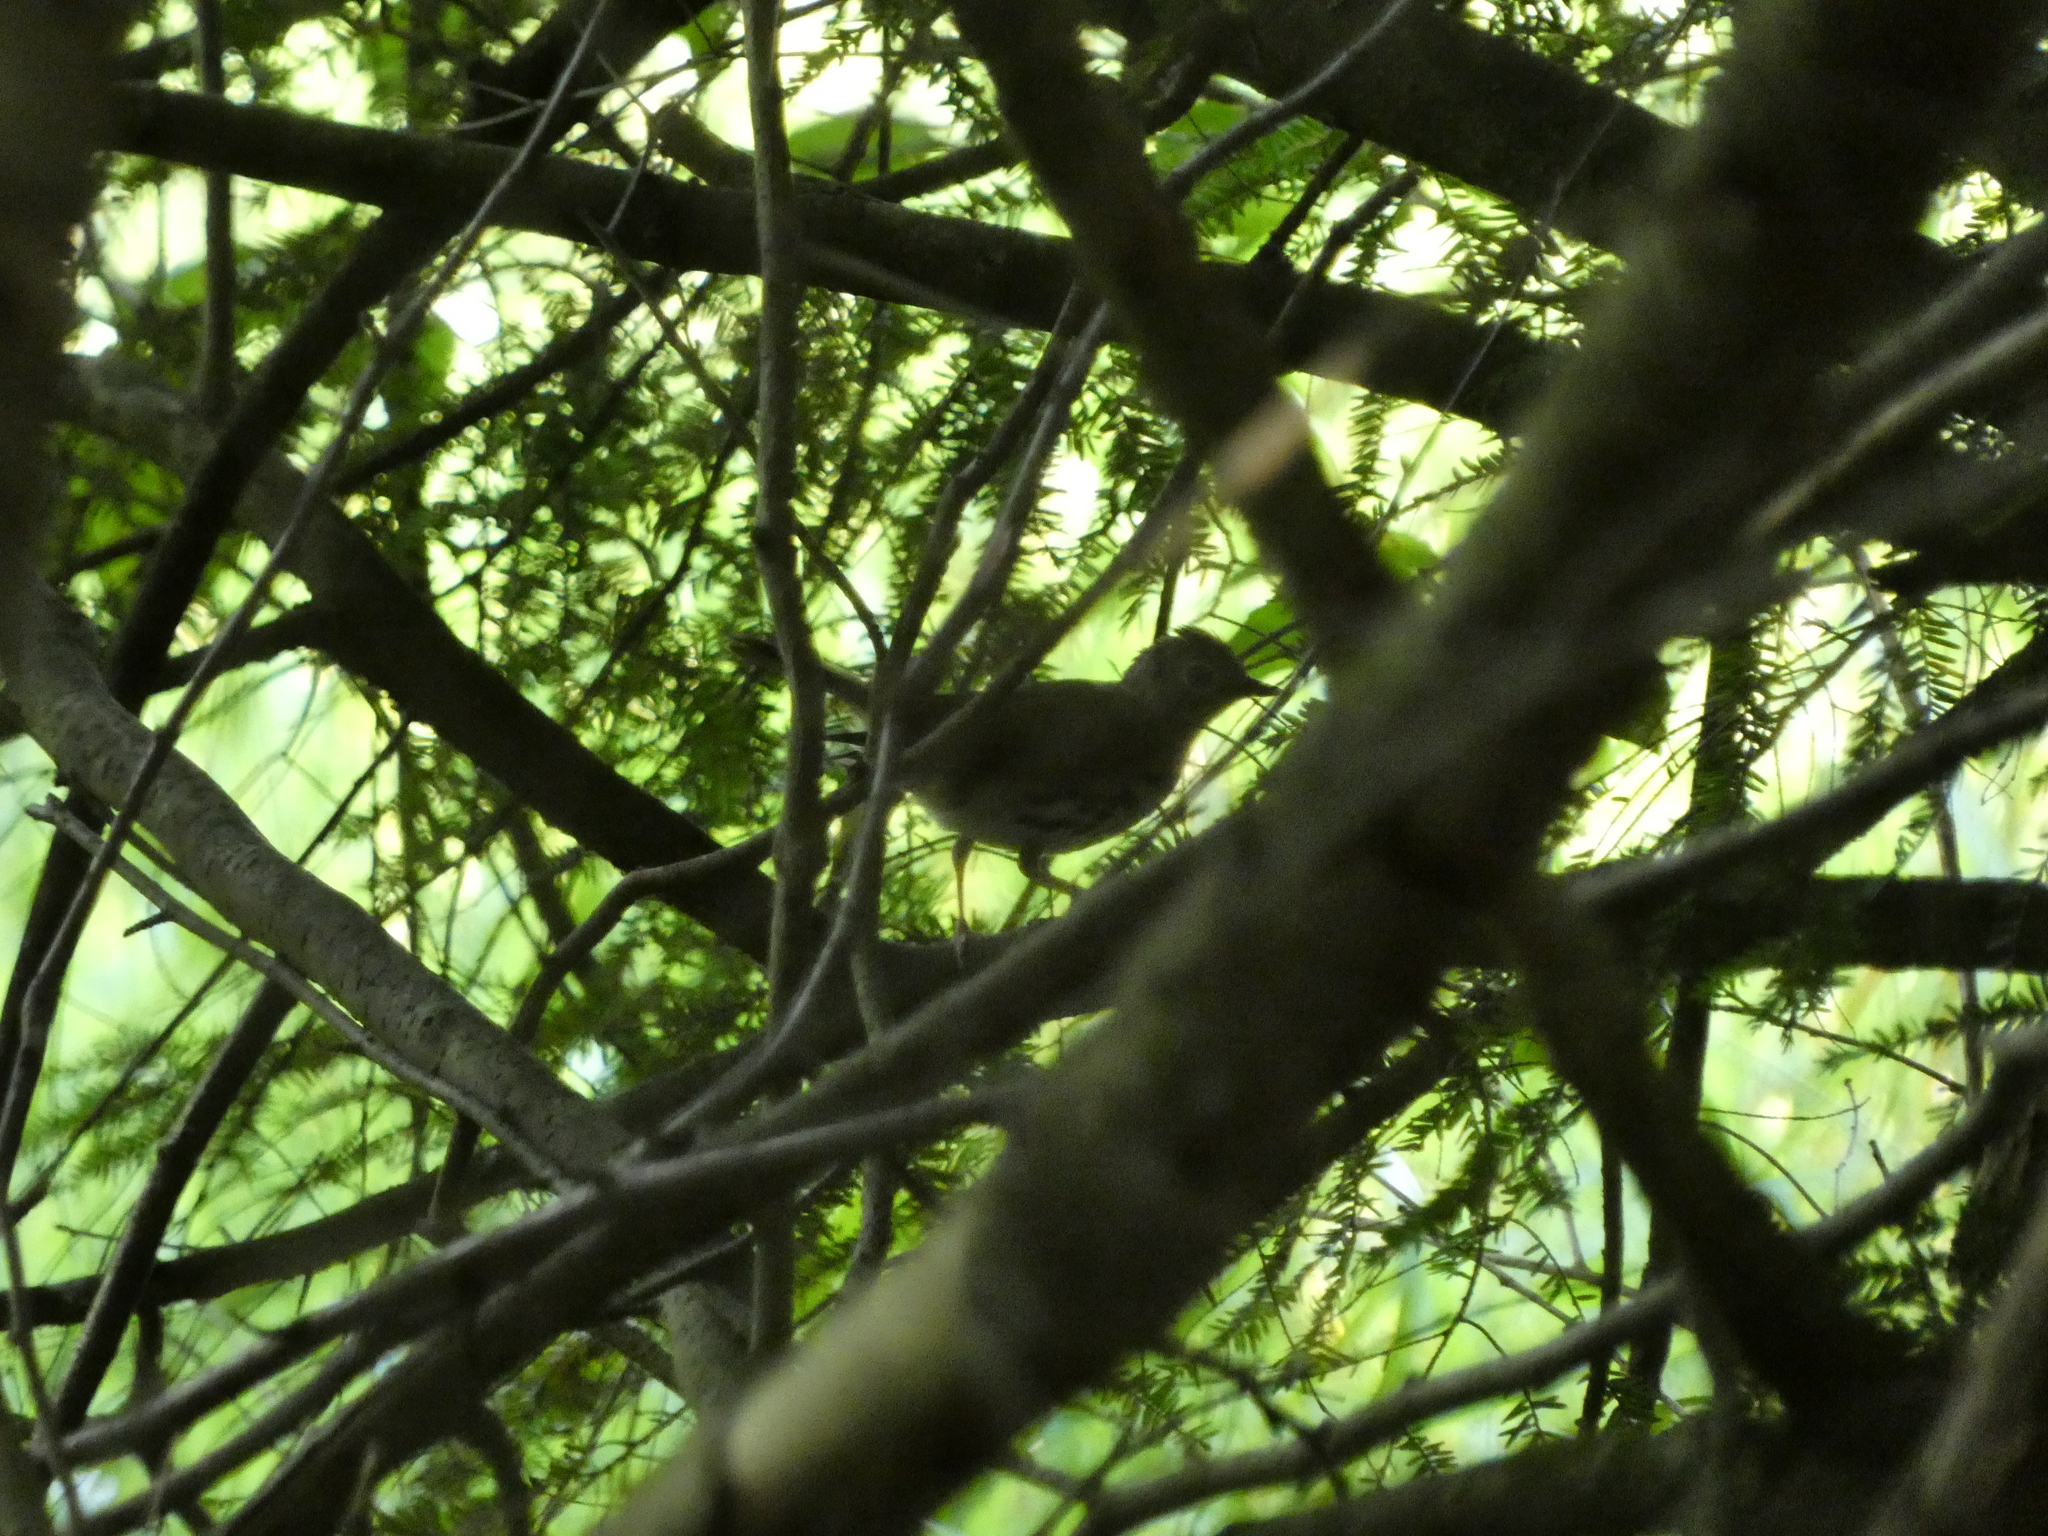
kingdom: Animalia
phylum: Chordata
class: Aves
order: Passeriformes
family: Parulidae
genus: Seiurus
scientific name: Seiurus aurocapilla
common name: Ovenbird
